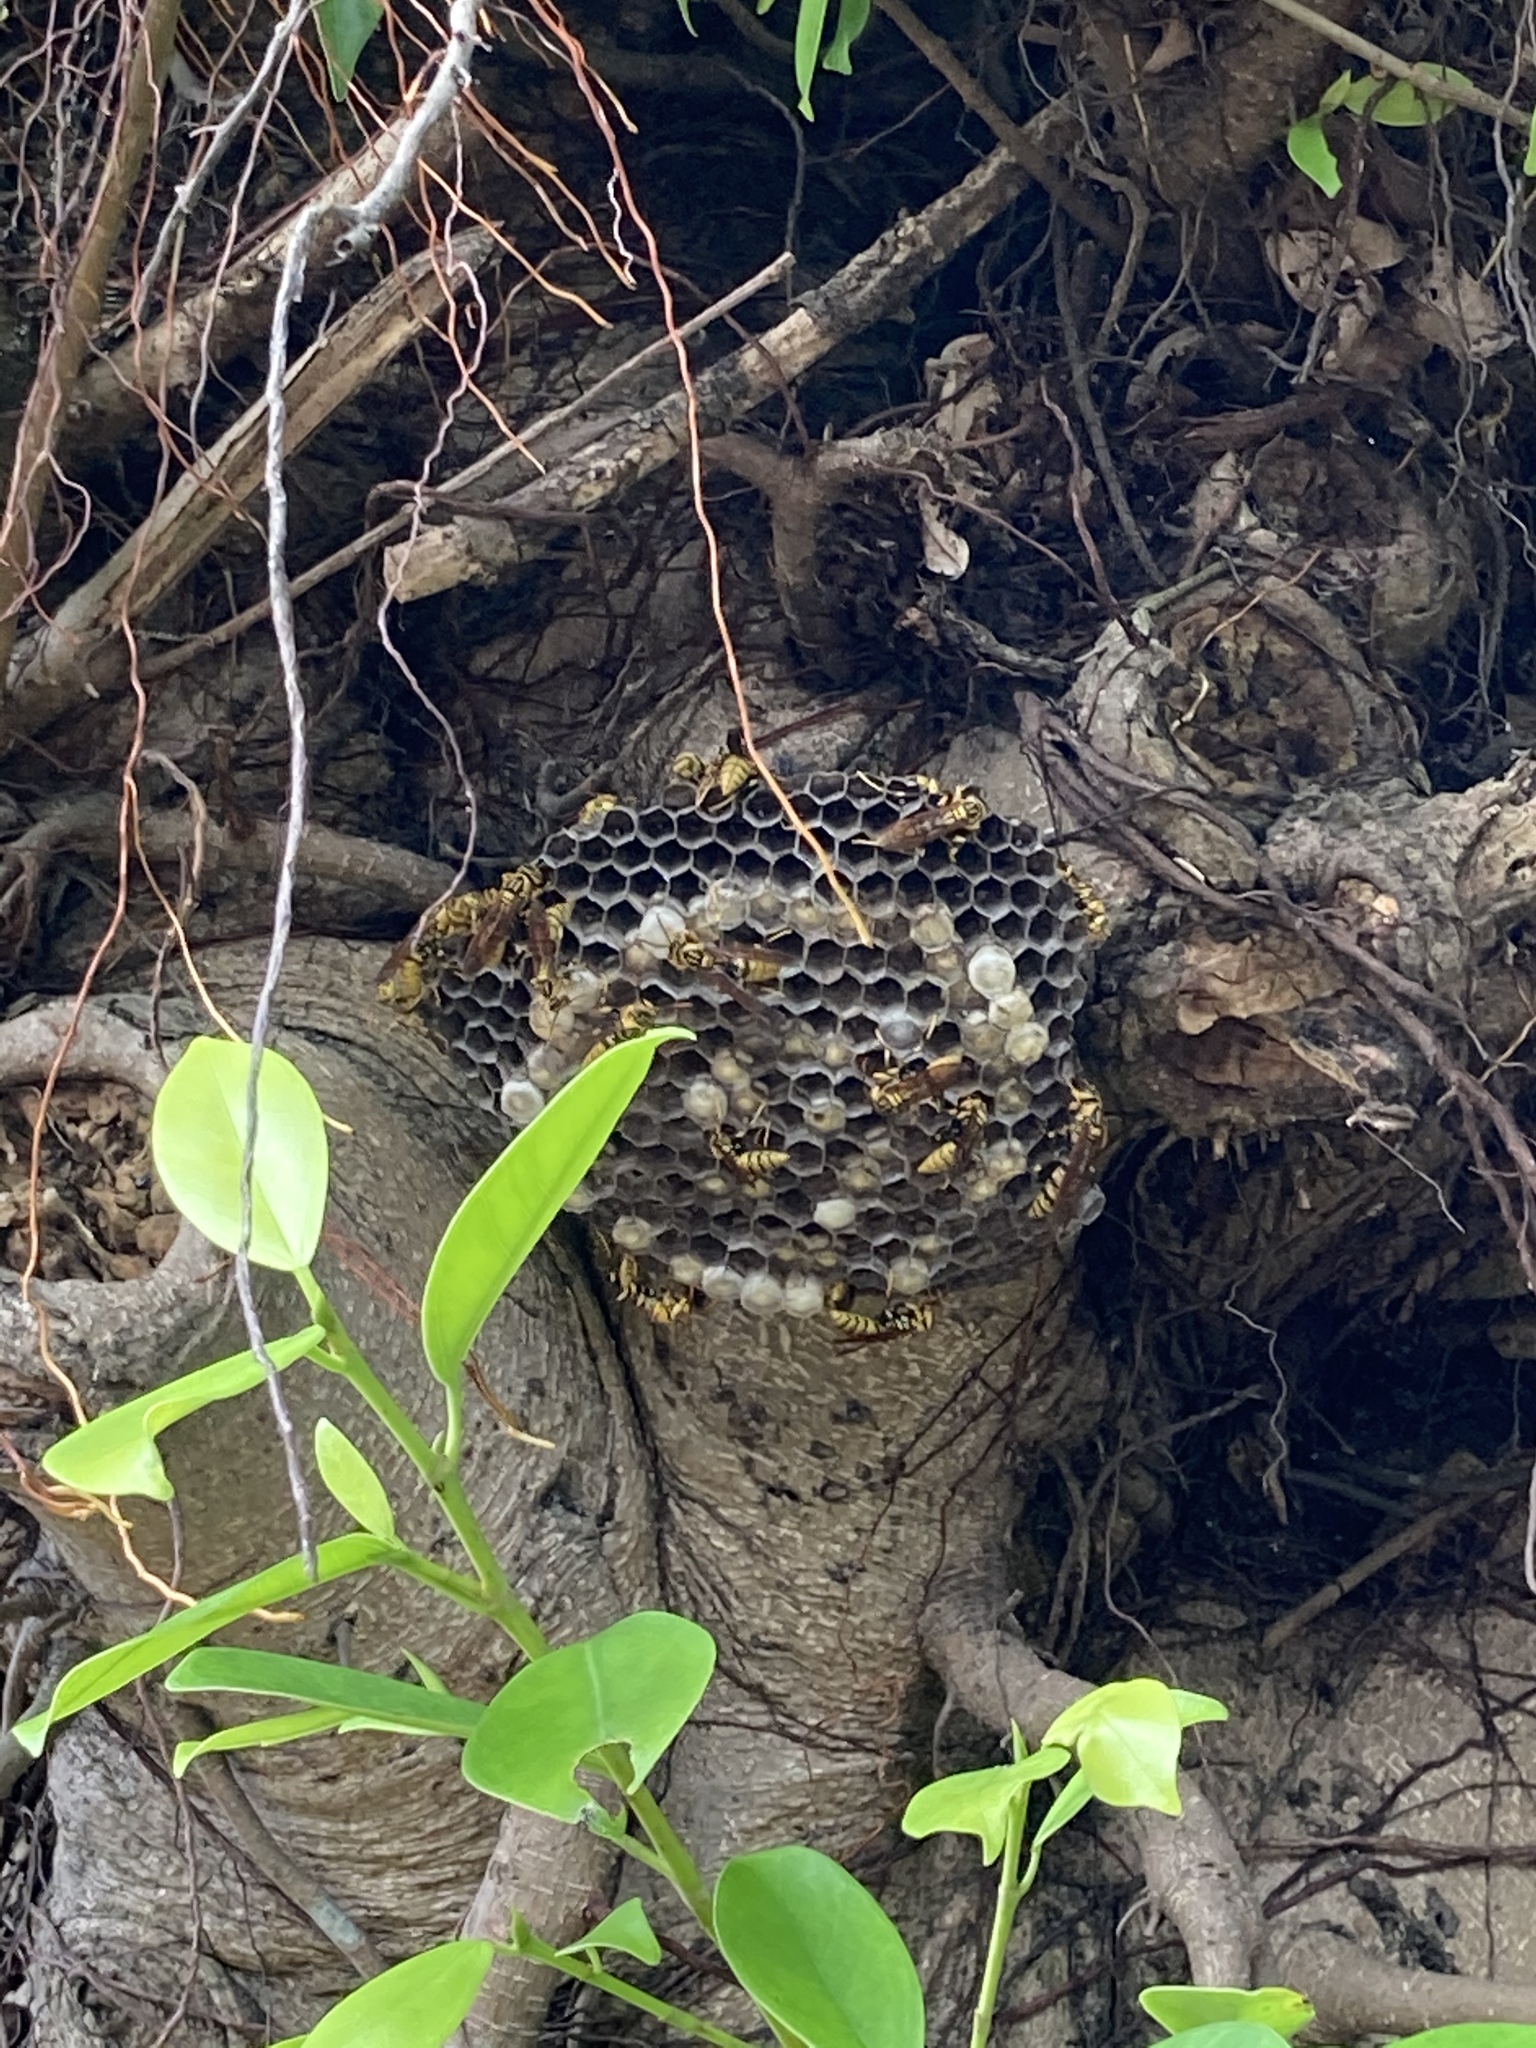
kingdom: Animalia
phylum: Arthropoda
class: Insecta
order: Hymenoptera
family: Eumenidae
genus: Polistes
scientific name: Polistes rothneyi
